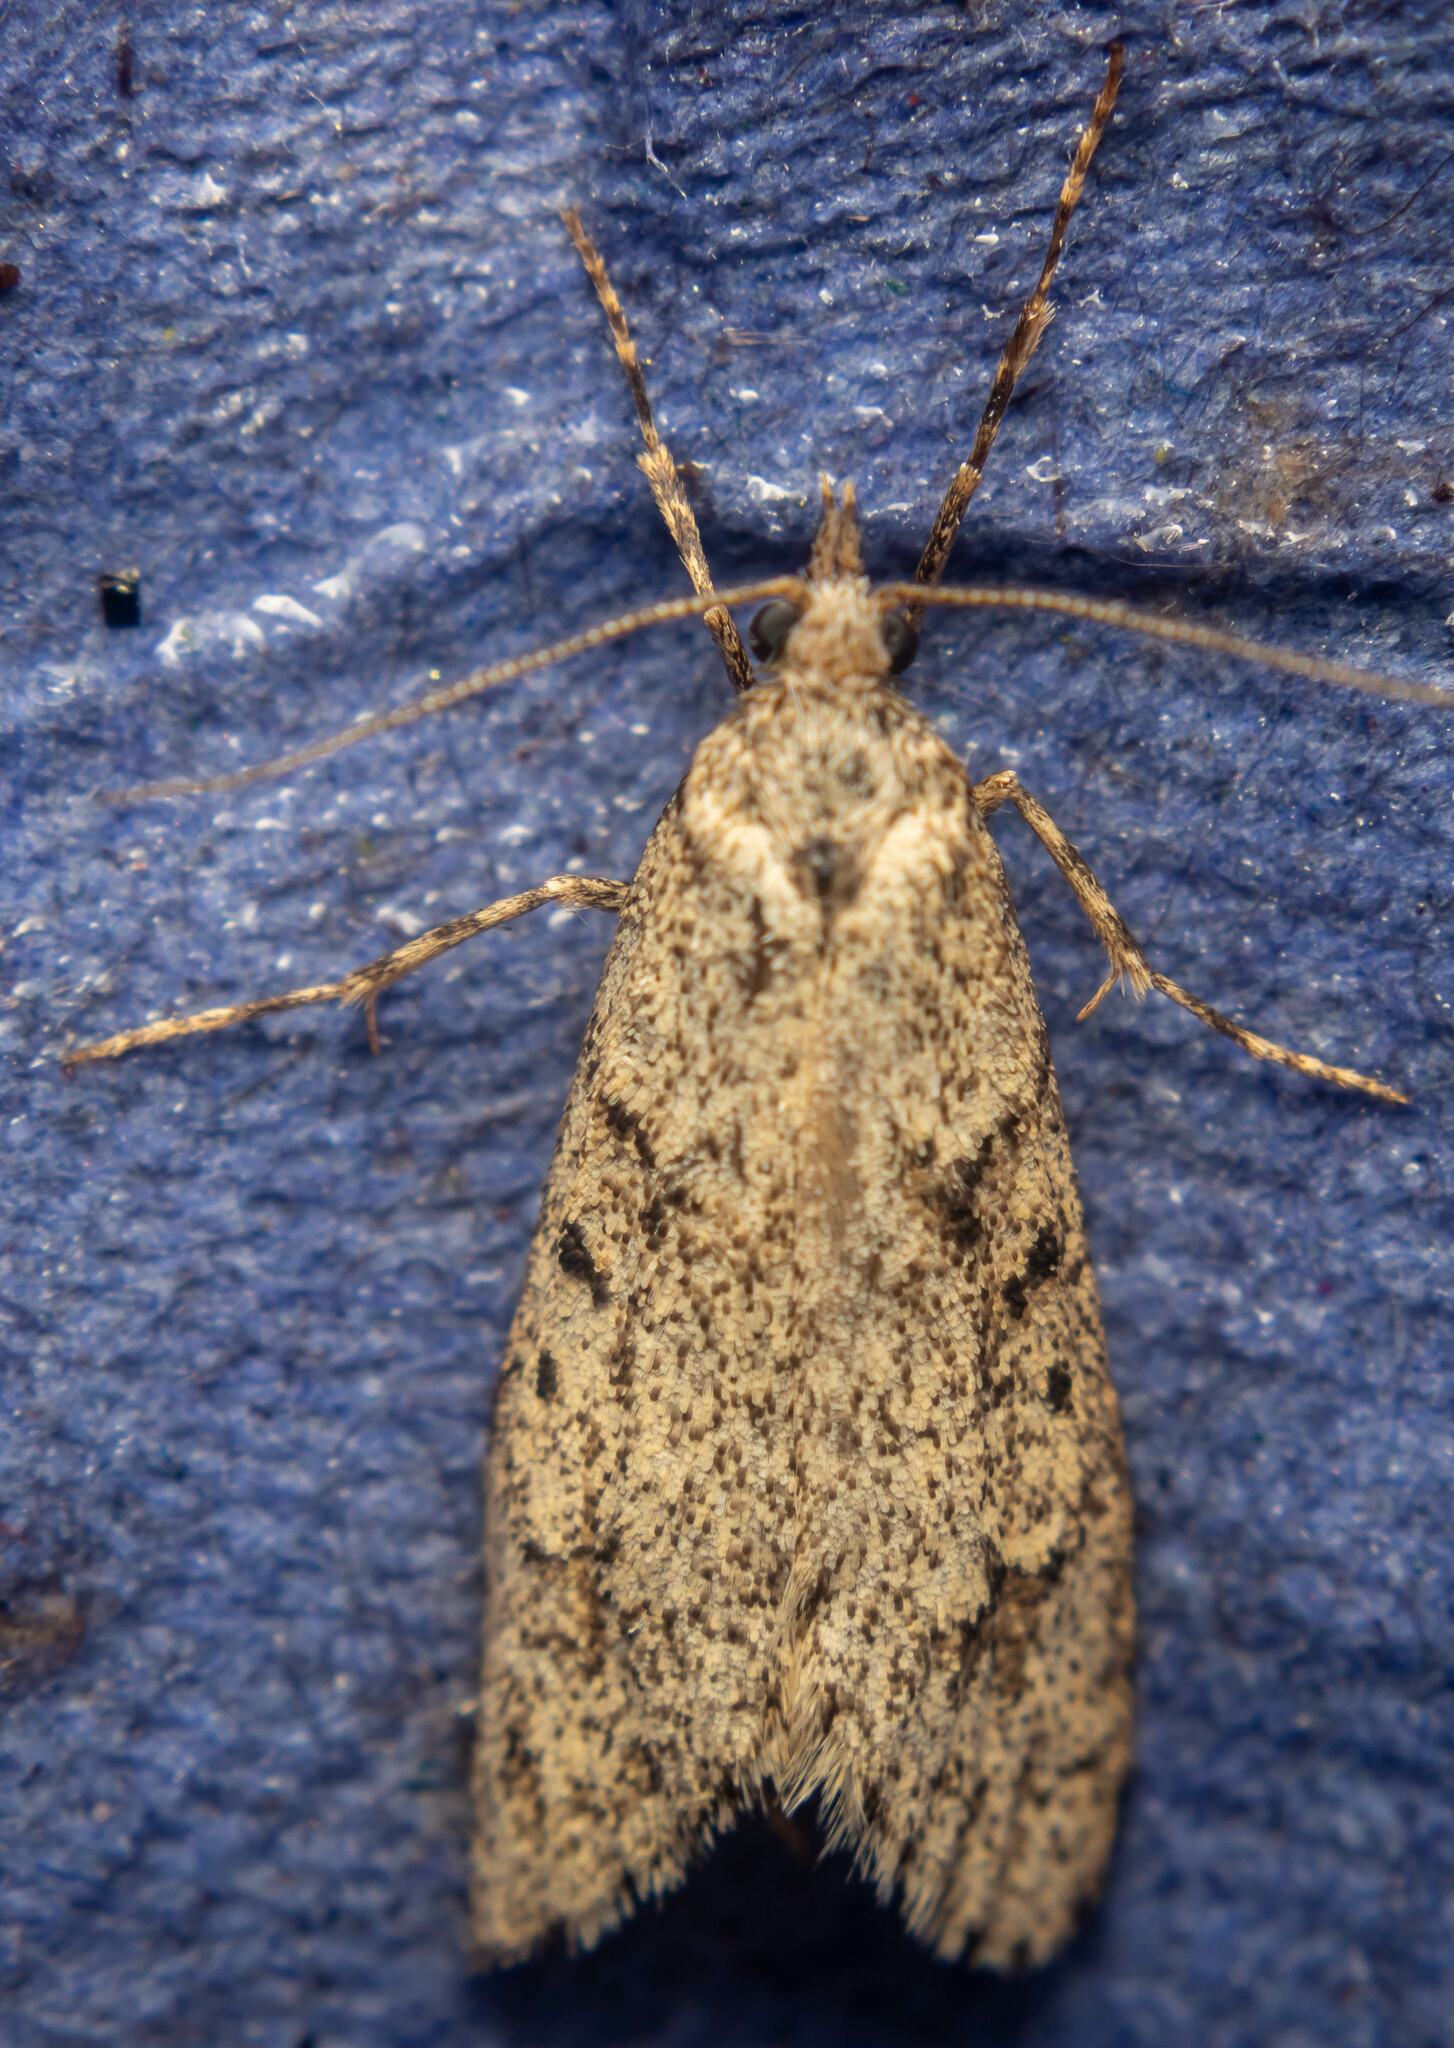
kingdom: Animalia
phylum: Arthropoda
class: Insecta
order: Lepidoptera
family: Lypusidae
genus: Diurnea
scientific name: Diurnea fagella
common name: March tubic
